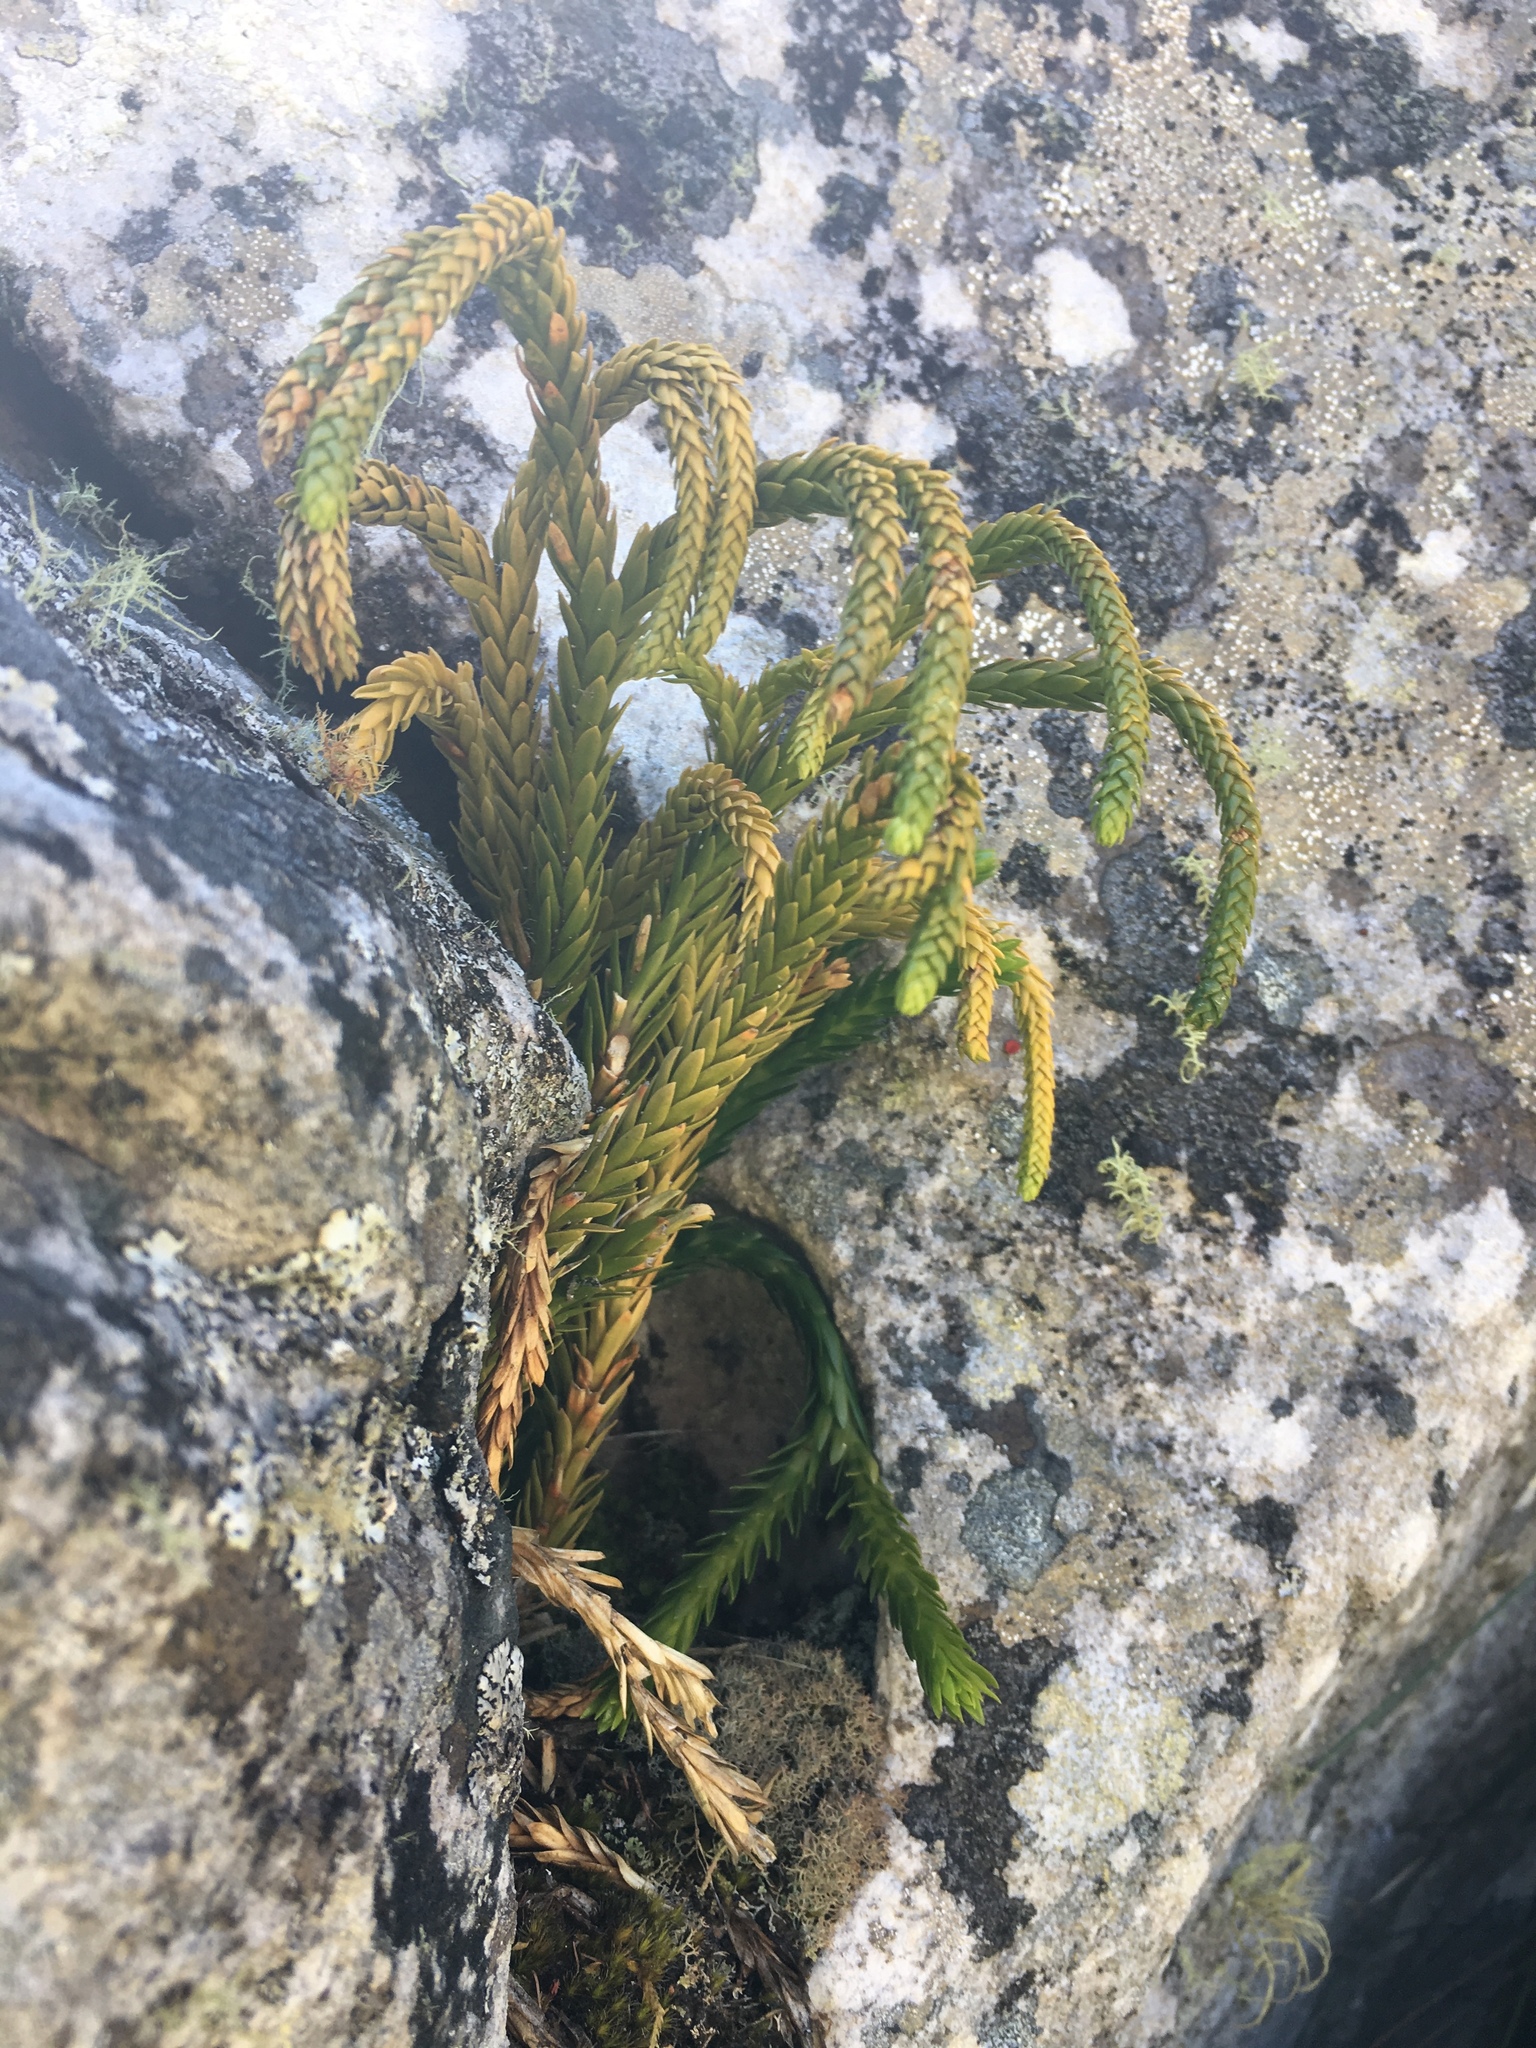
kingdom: Plantae
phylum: Tracheophyta
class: Lycopodiopsida
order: Lycopodiales
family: Lycopodiaceae
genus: Phlegmariurus
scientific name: Phlegmariurus gnidioides
